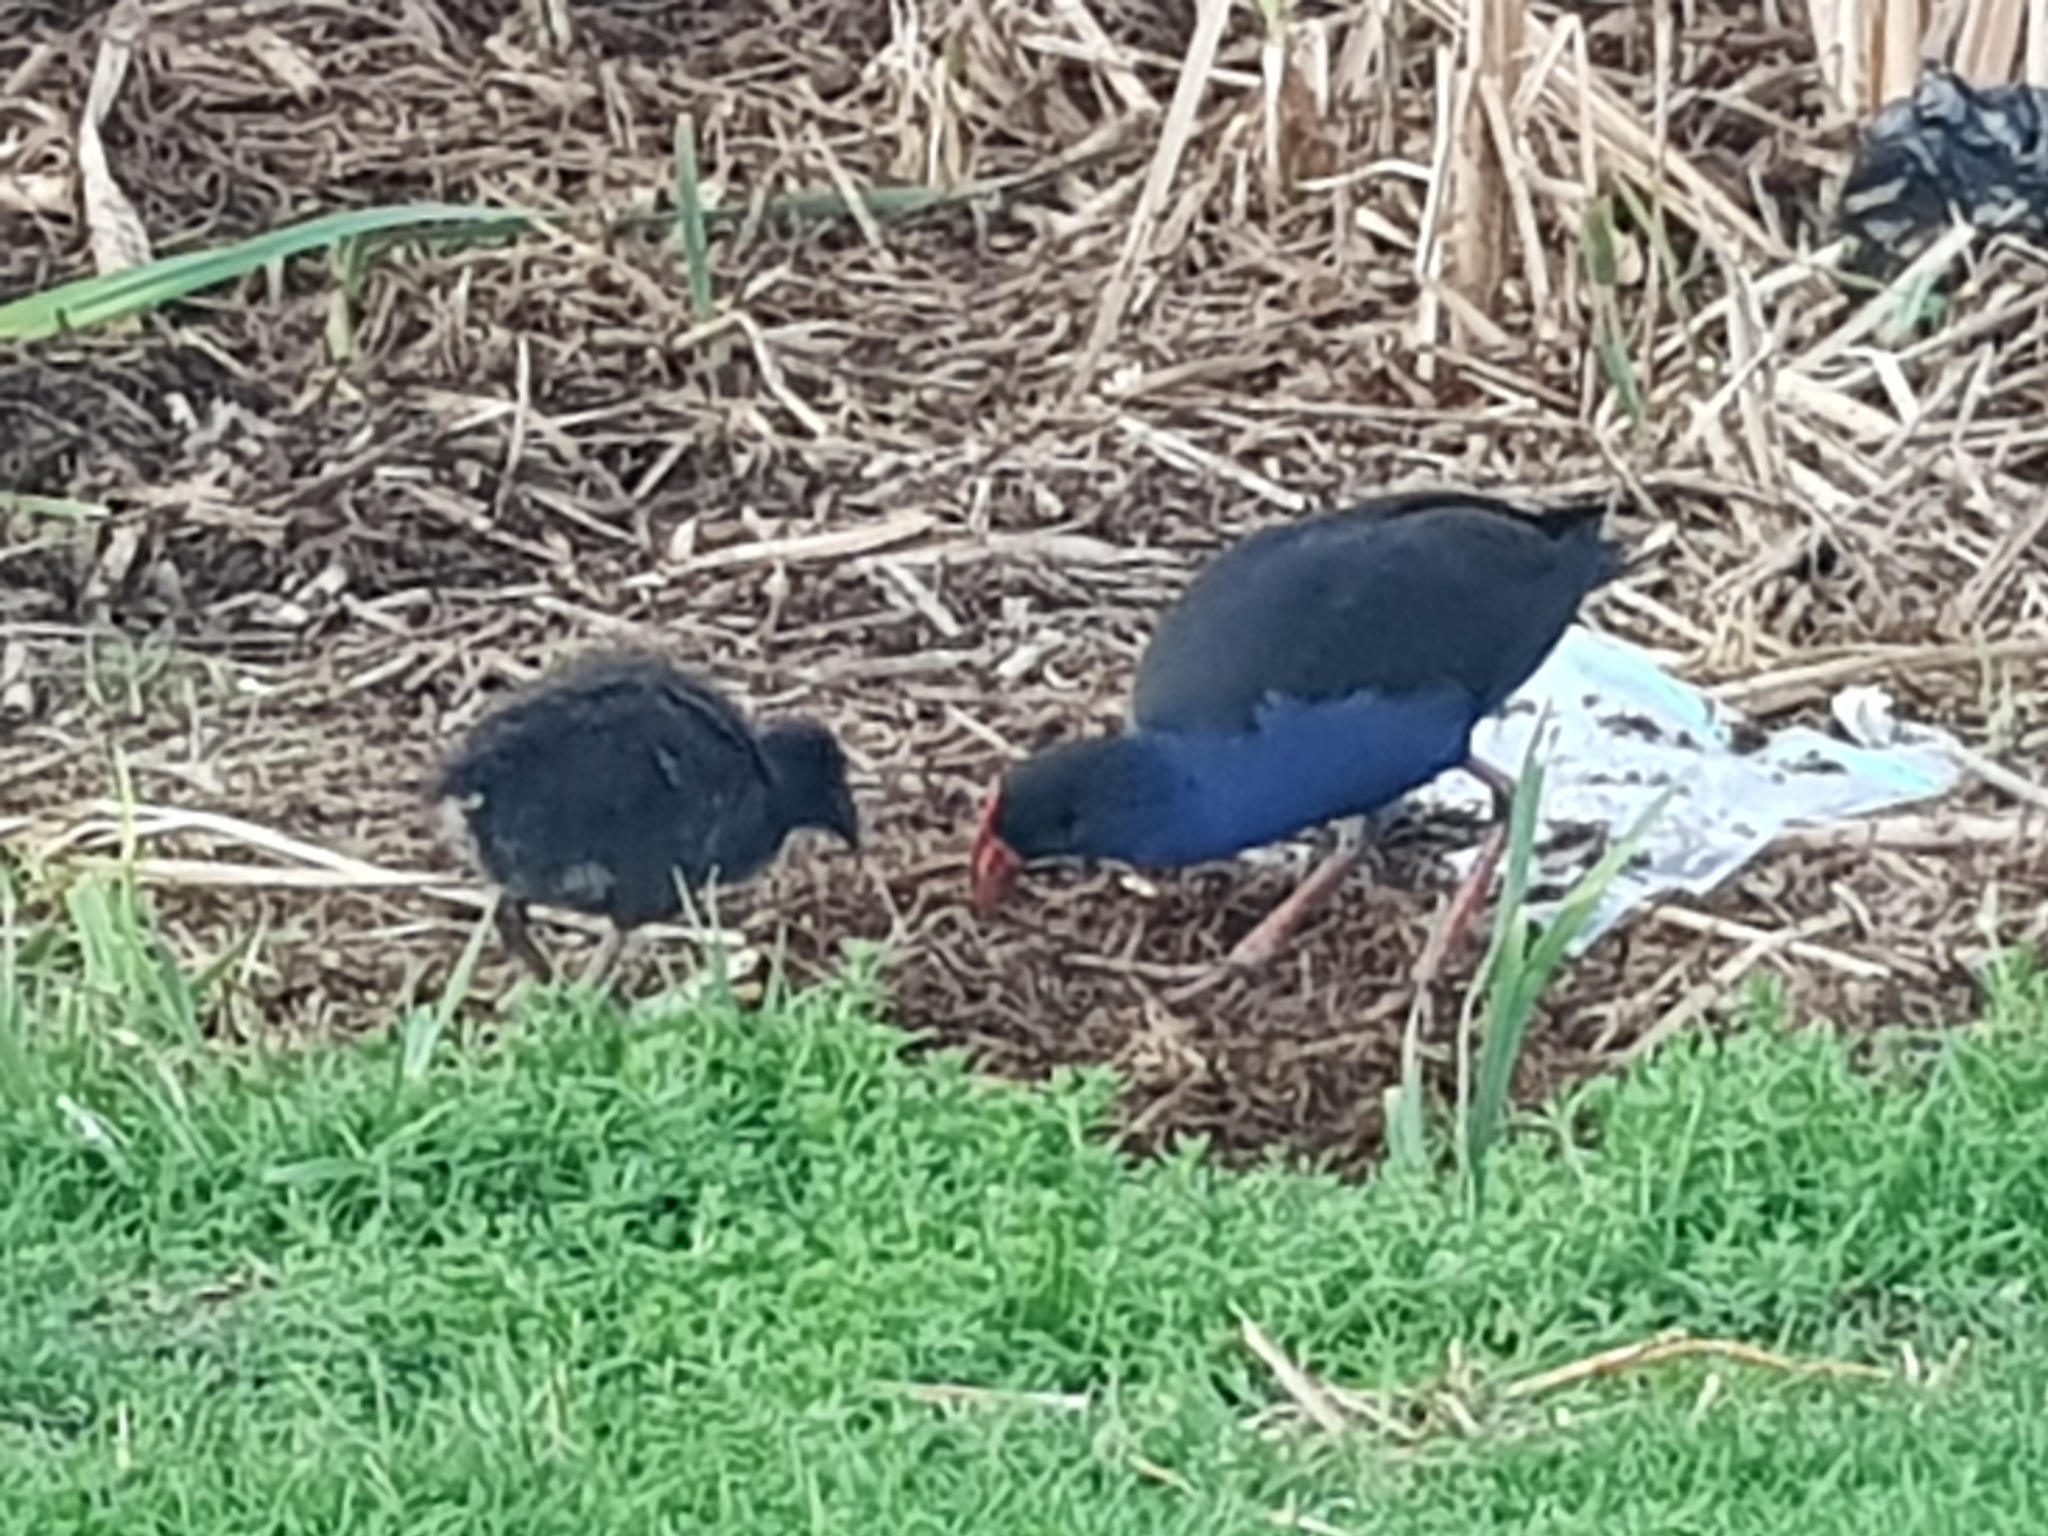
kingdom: Animalia
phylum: Chordata
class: Aves
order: Gruiformes
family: Rallidae
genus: Porphyrio
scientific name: Porphyrio melanotus
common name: Australasian swamphen
